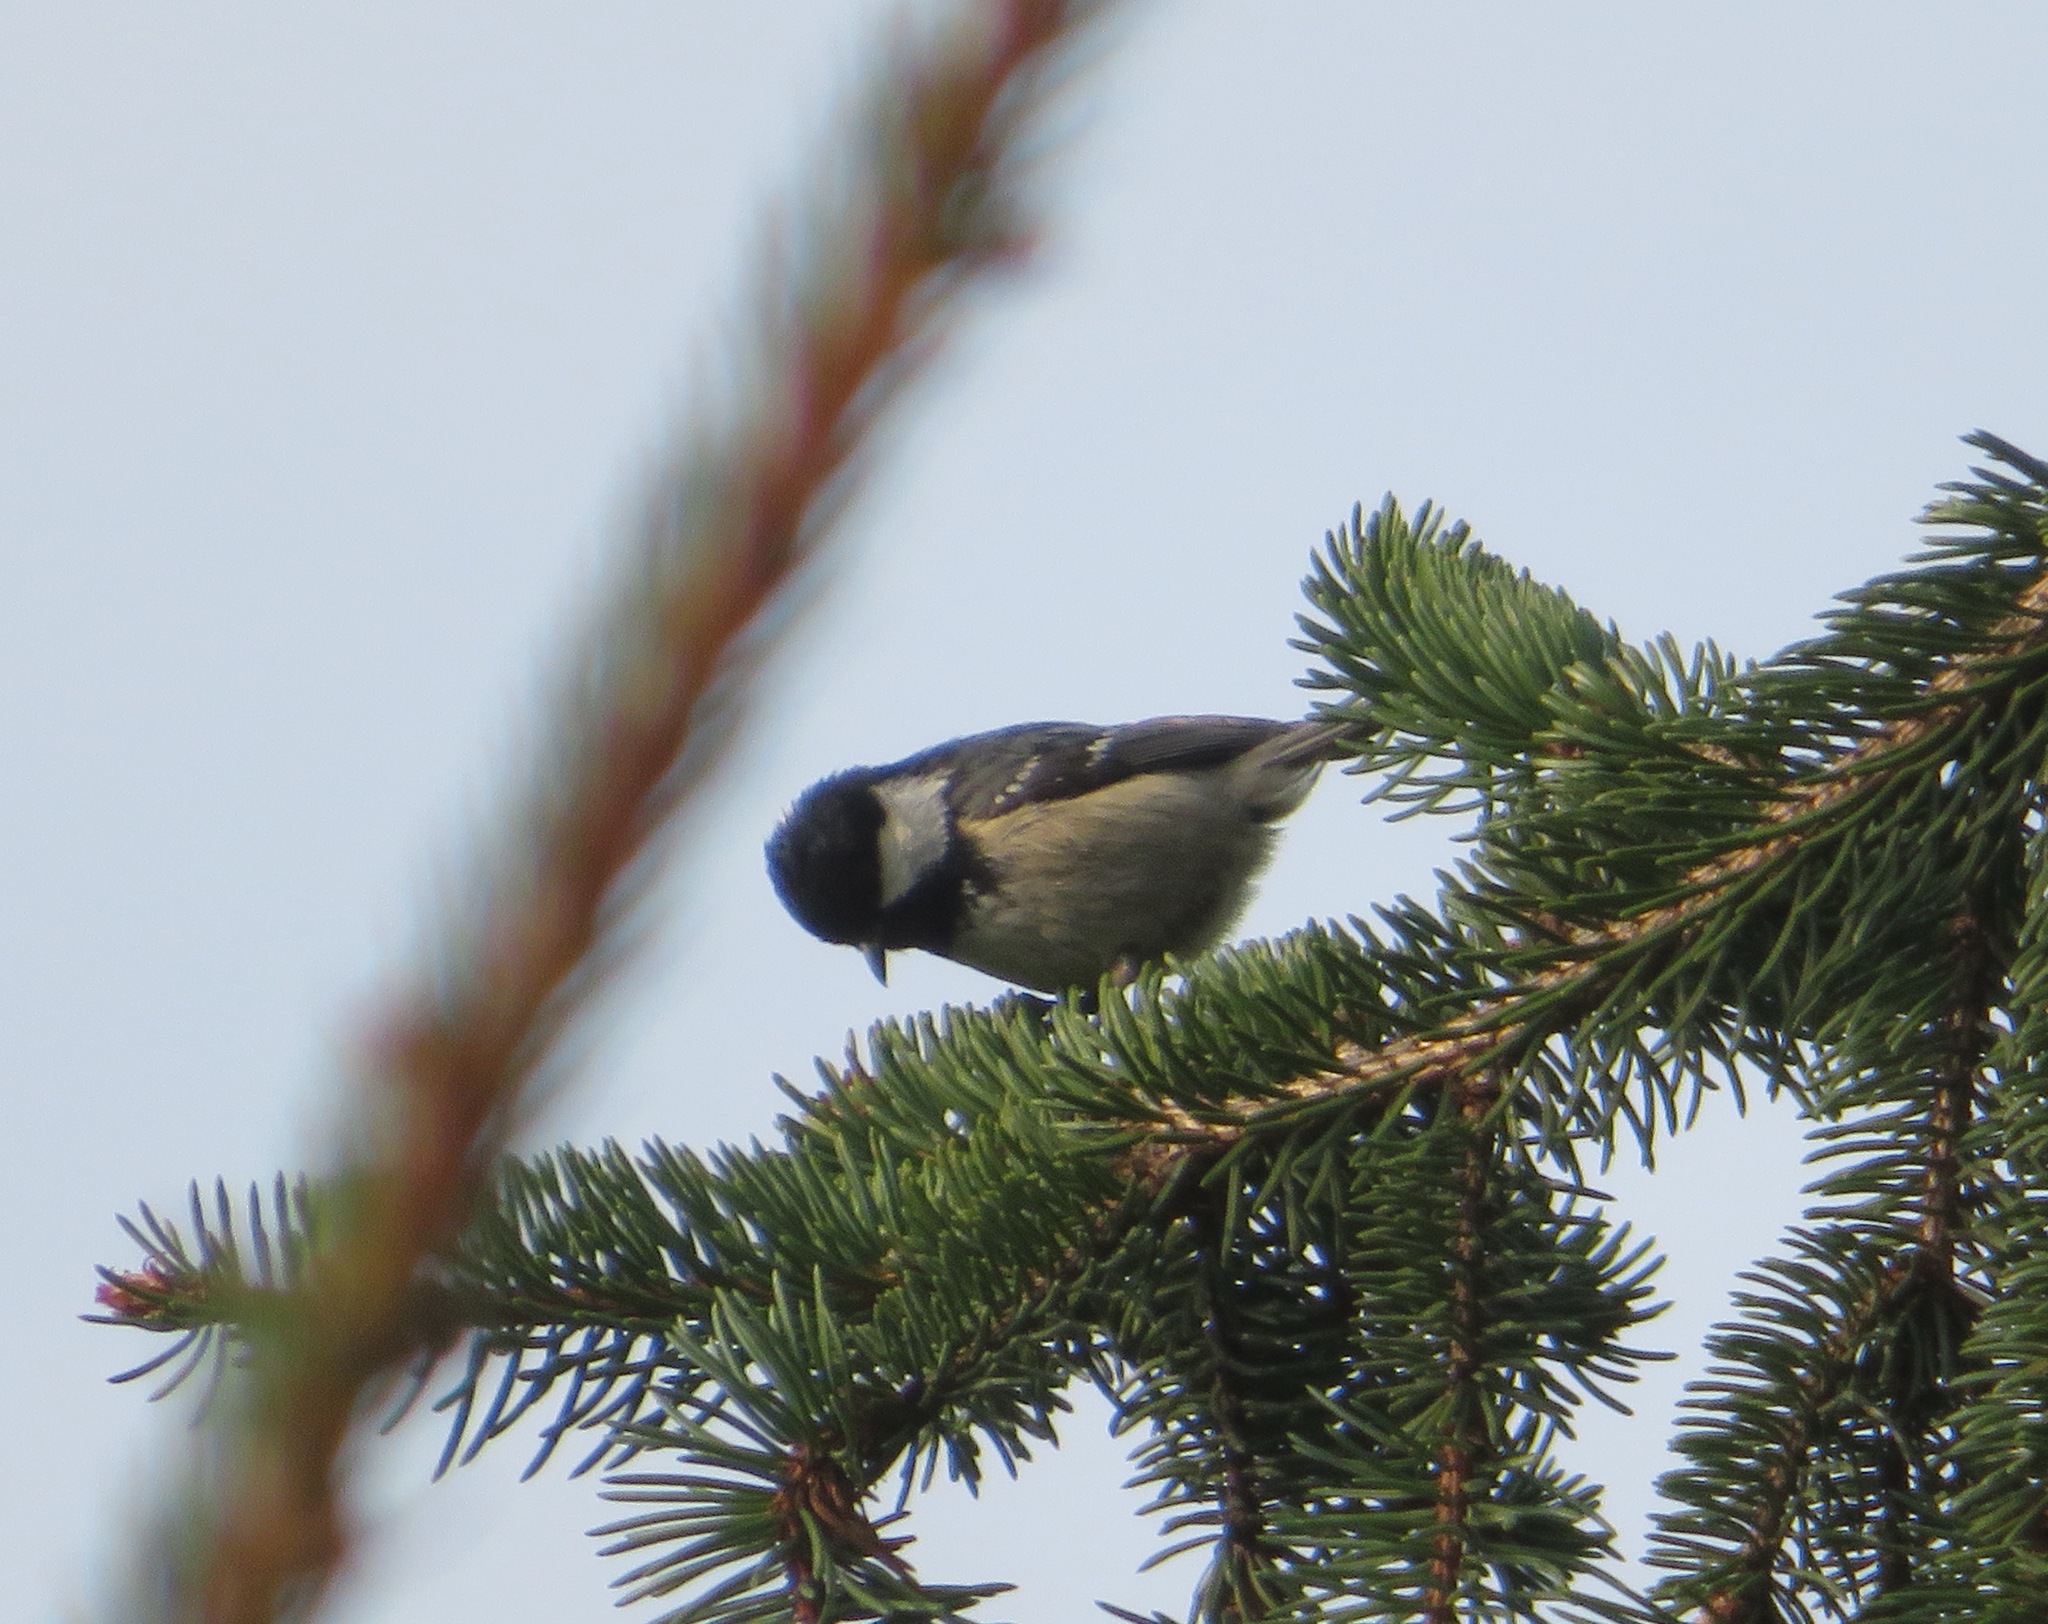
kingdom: Animalia
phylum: Chordata
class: Aves
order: Passeriformes
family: Paridae
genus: Periparus
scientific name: Periparus ater
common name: Coal tit
